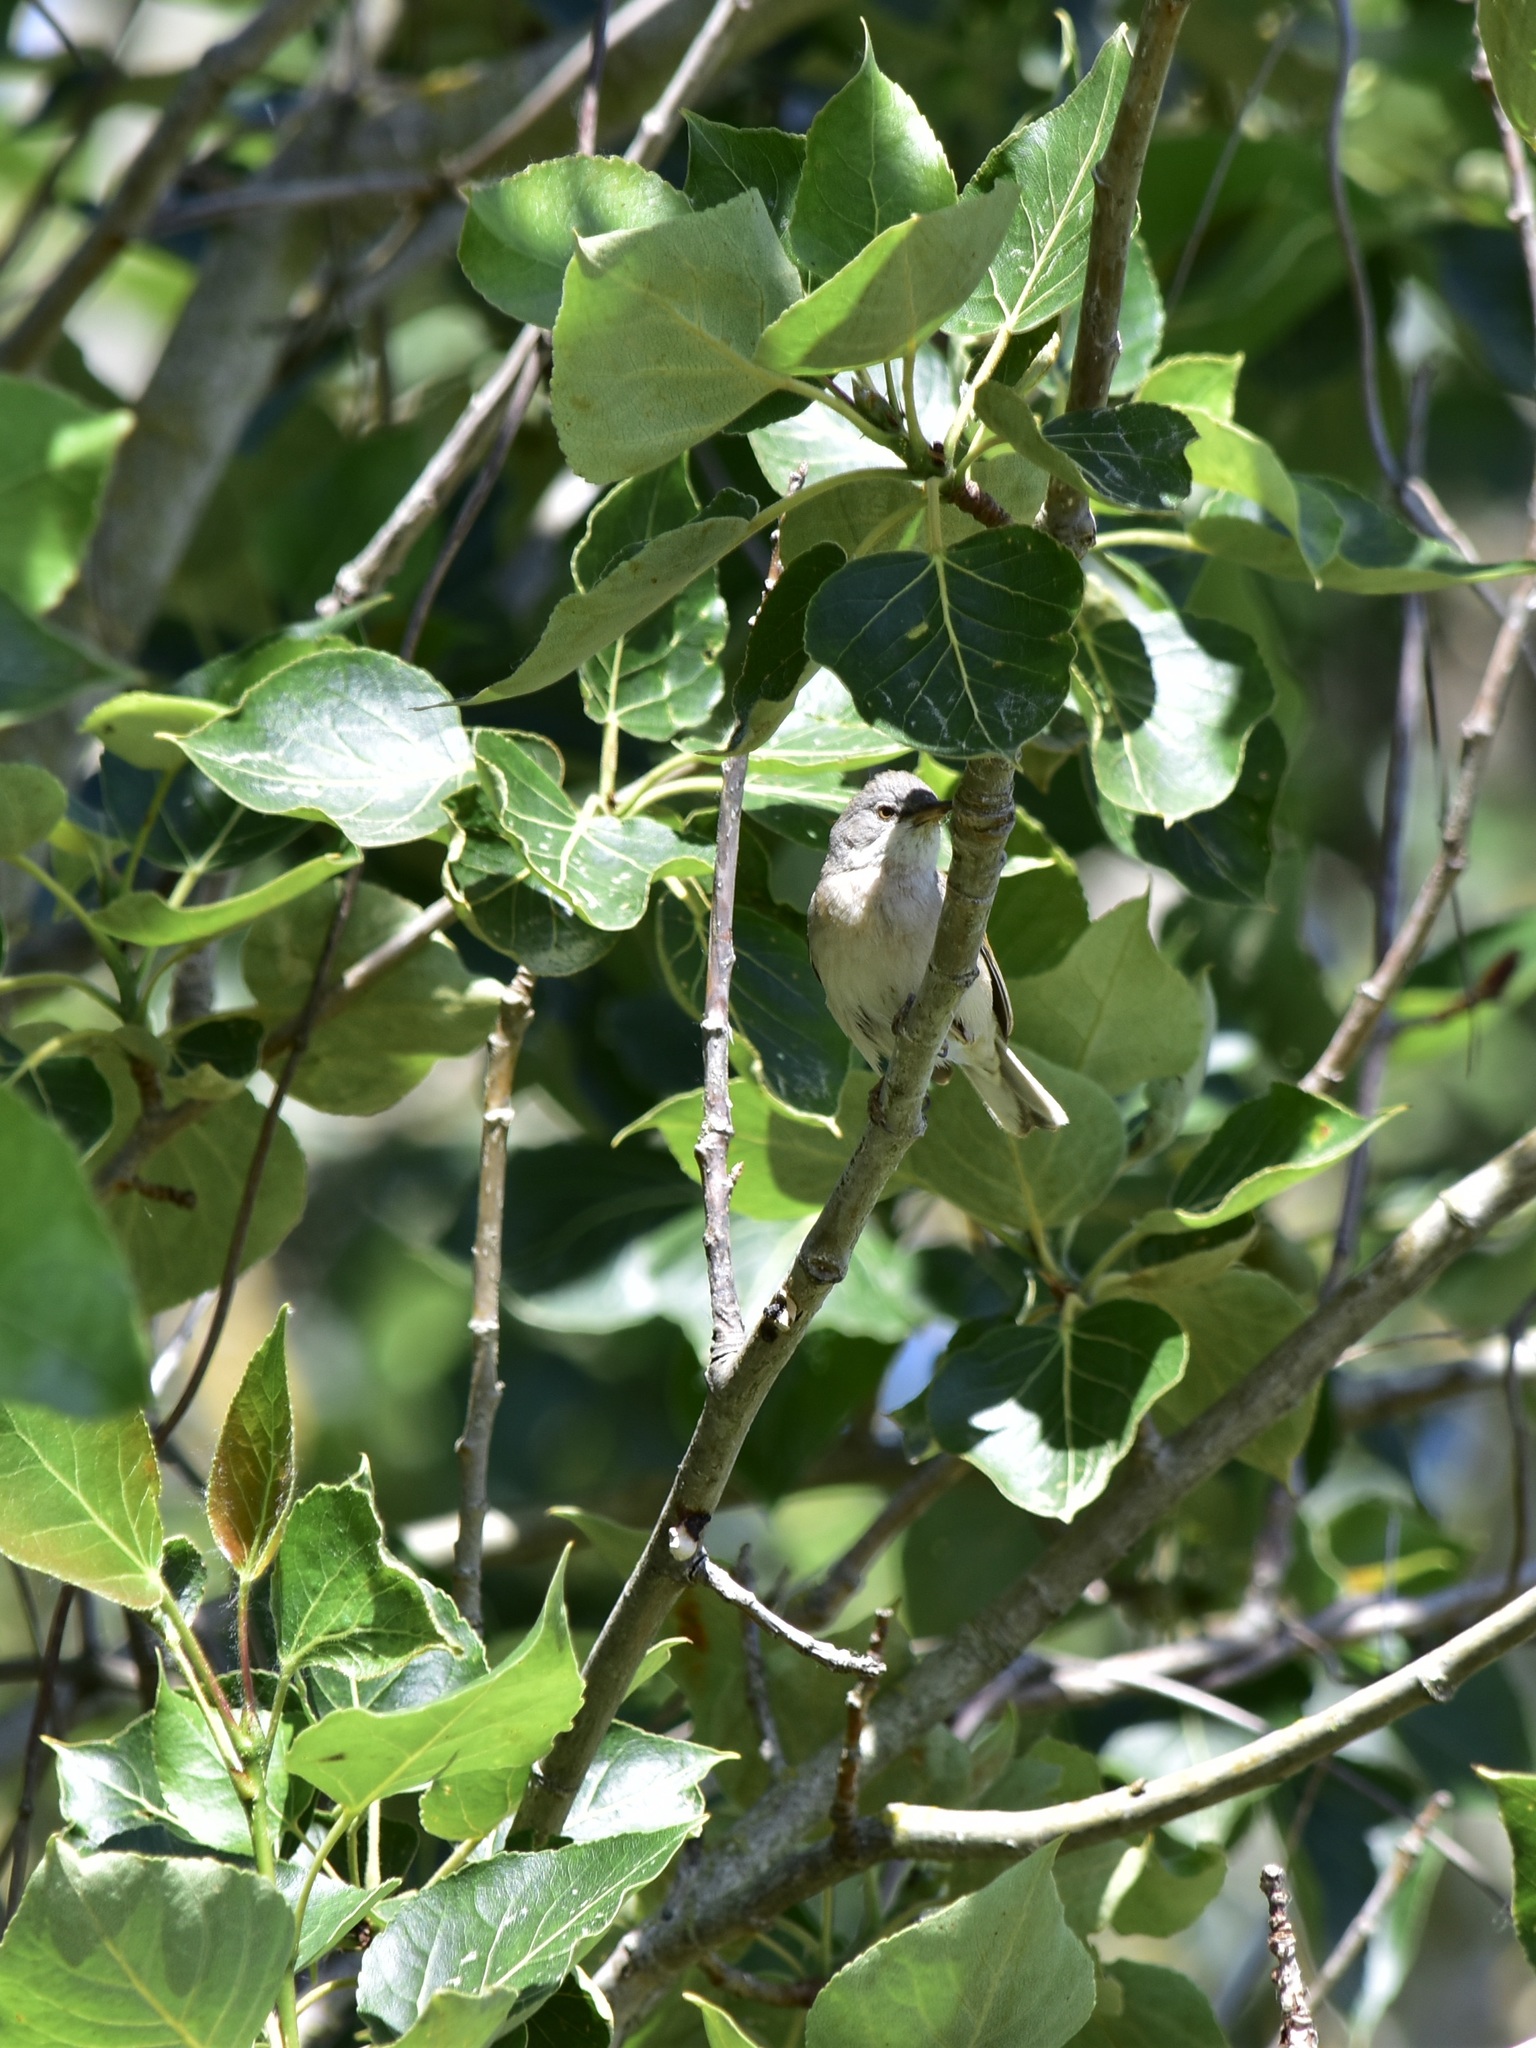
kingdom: Animalia
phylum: Chordata
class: Aves
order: Passeriformes
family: Sylviidae
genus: Sylvia
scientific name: Sylvia communis
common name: Common whitethroat
